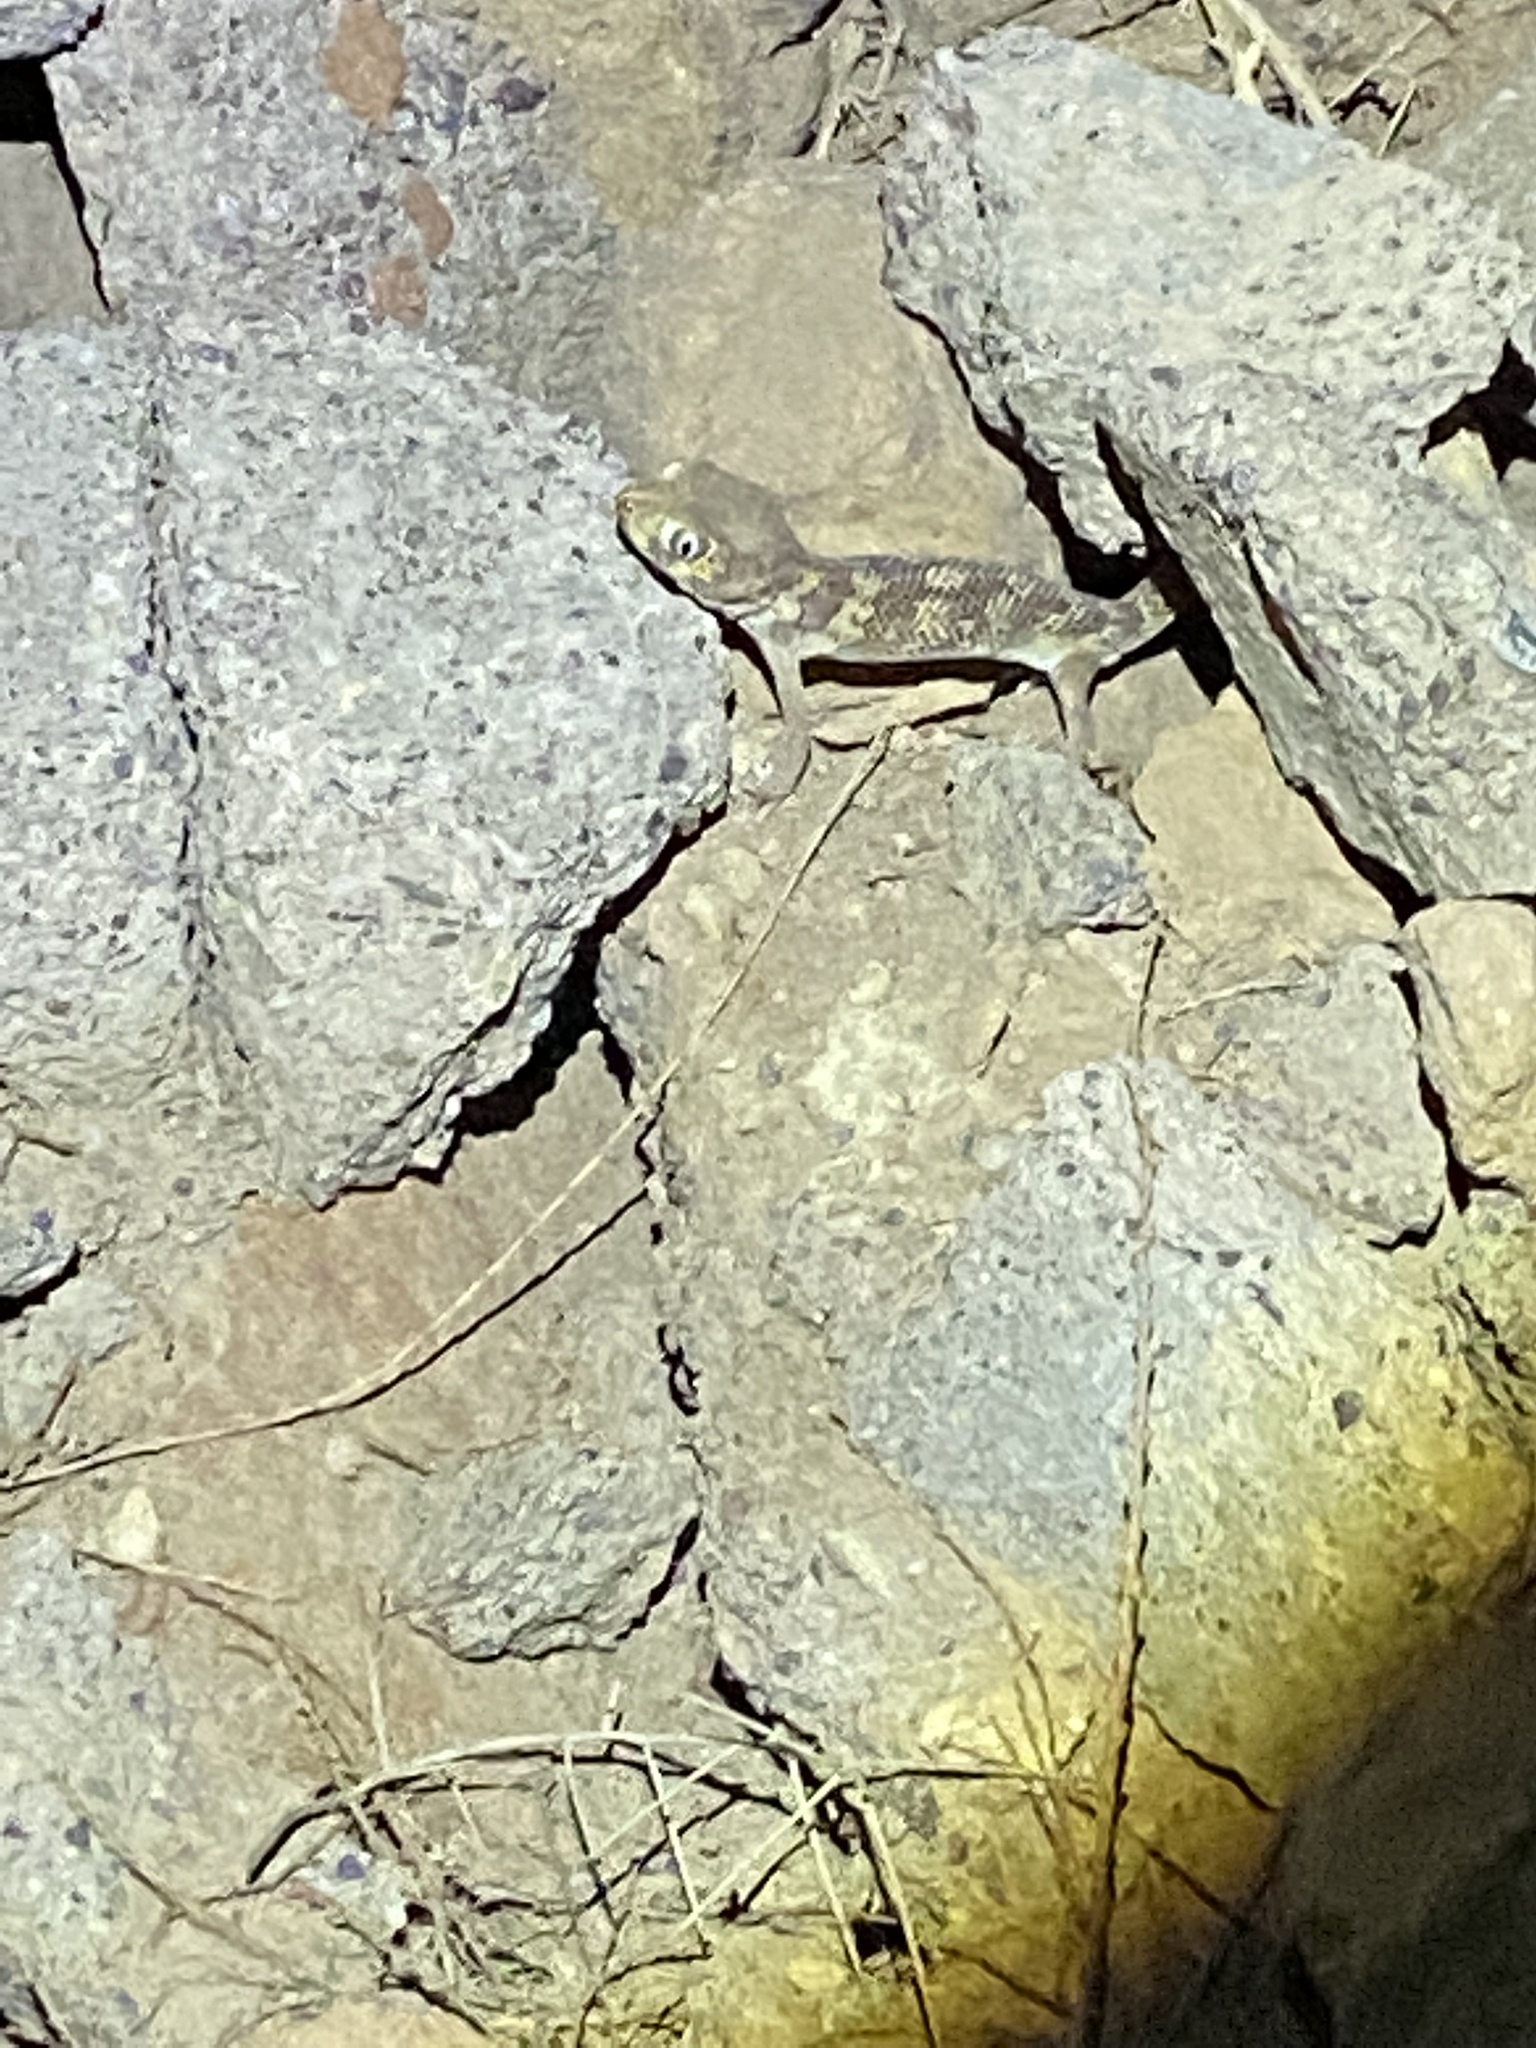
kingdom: Animalia
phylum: Chordata
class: Squamata
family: Sphaerodactylidae
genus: Teratoscincus
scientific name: Teratoscincus bedriagai
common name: Bedriaga's plate-tailed gecko
